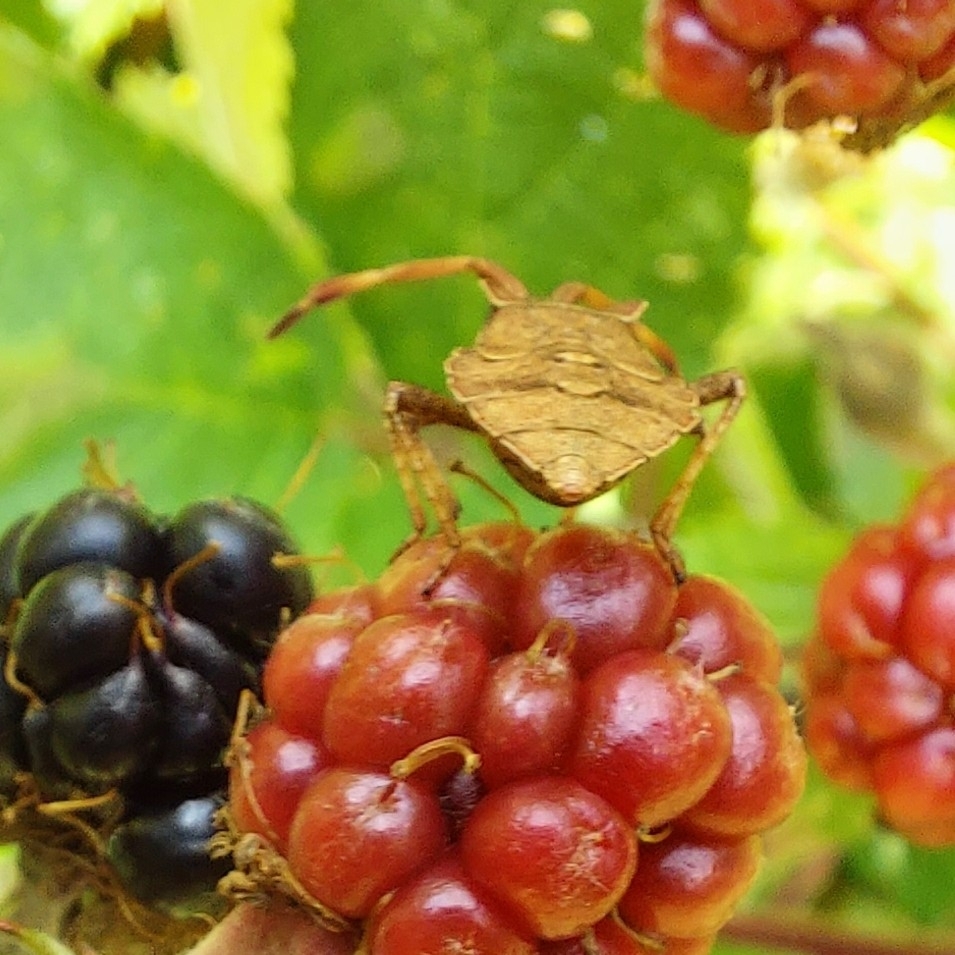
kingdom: Animalia
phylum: Arthropoda
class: Insecta
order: Hemiptera
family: Coreidae
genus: Coreus
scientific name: Coreus marginatus
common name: Dock bug
